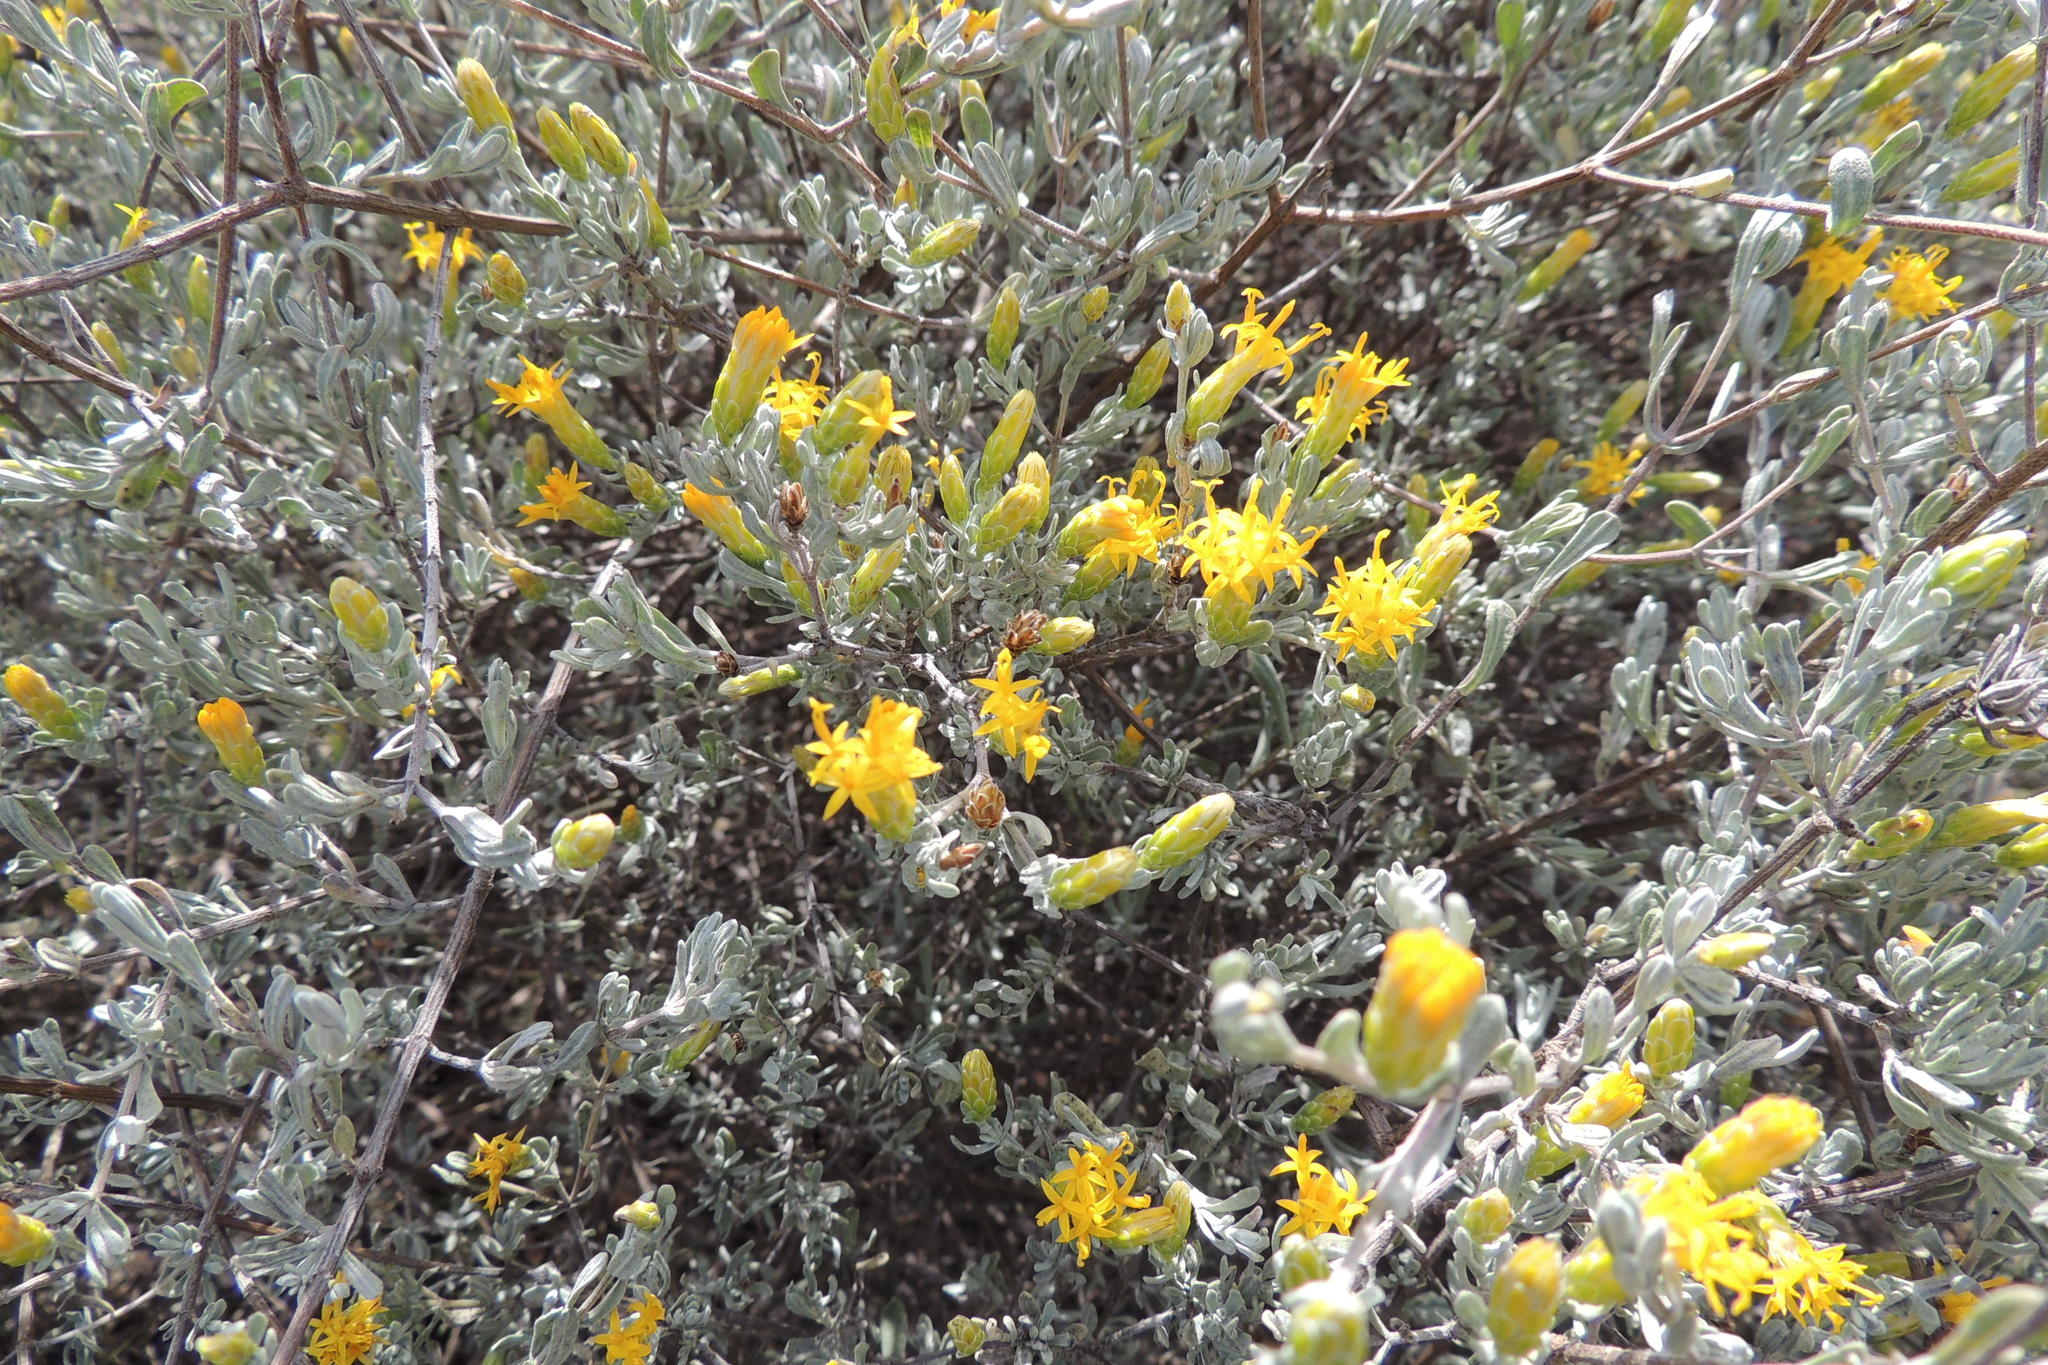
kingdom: Plantae
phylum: Tracheophyta
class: Magnoliopsida
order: Asterales
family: Asteraceae
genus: Pteronia
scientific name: Pteronia incana
